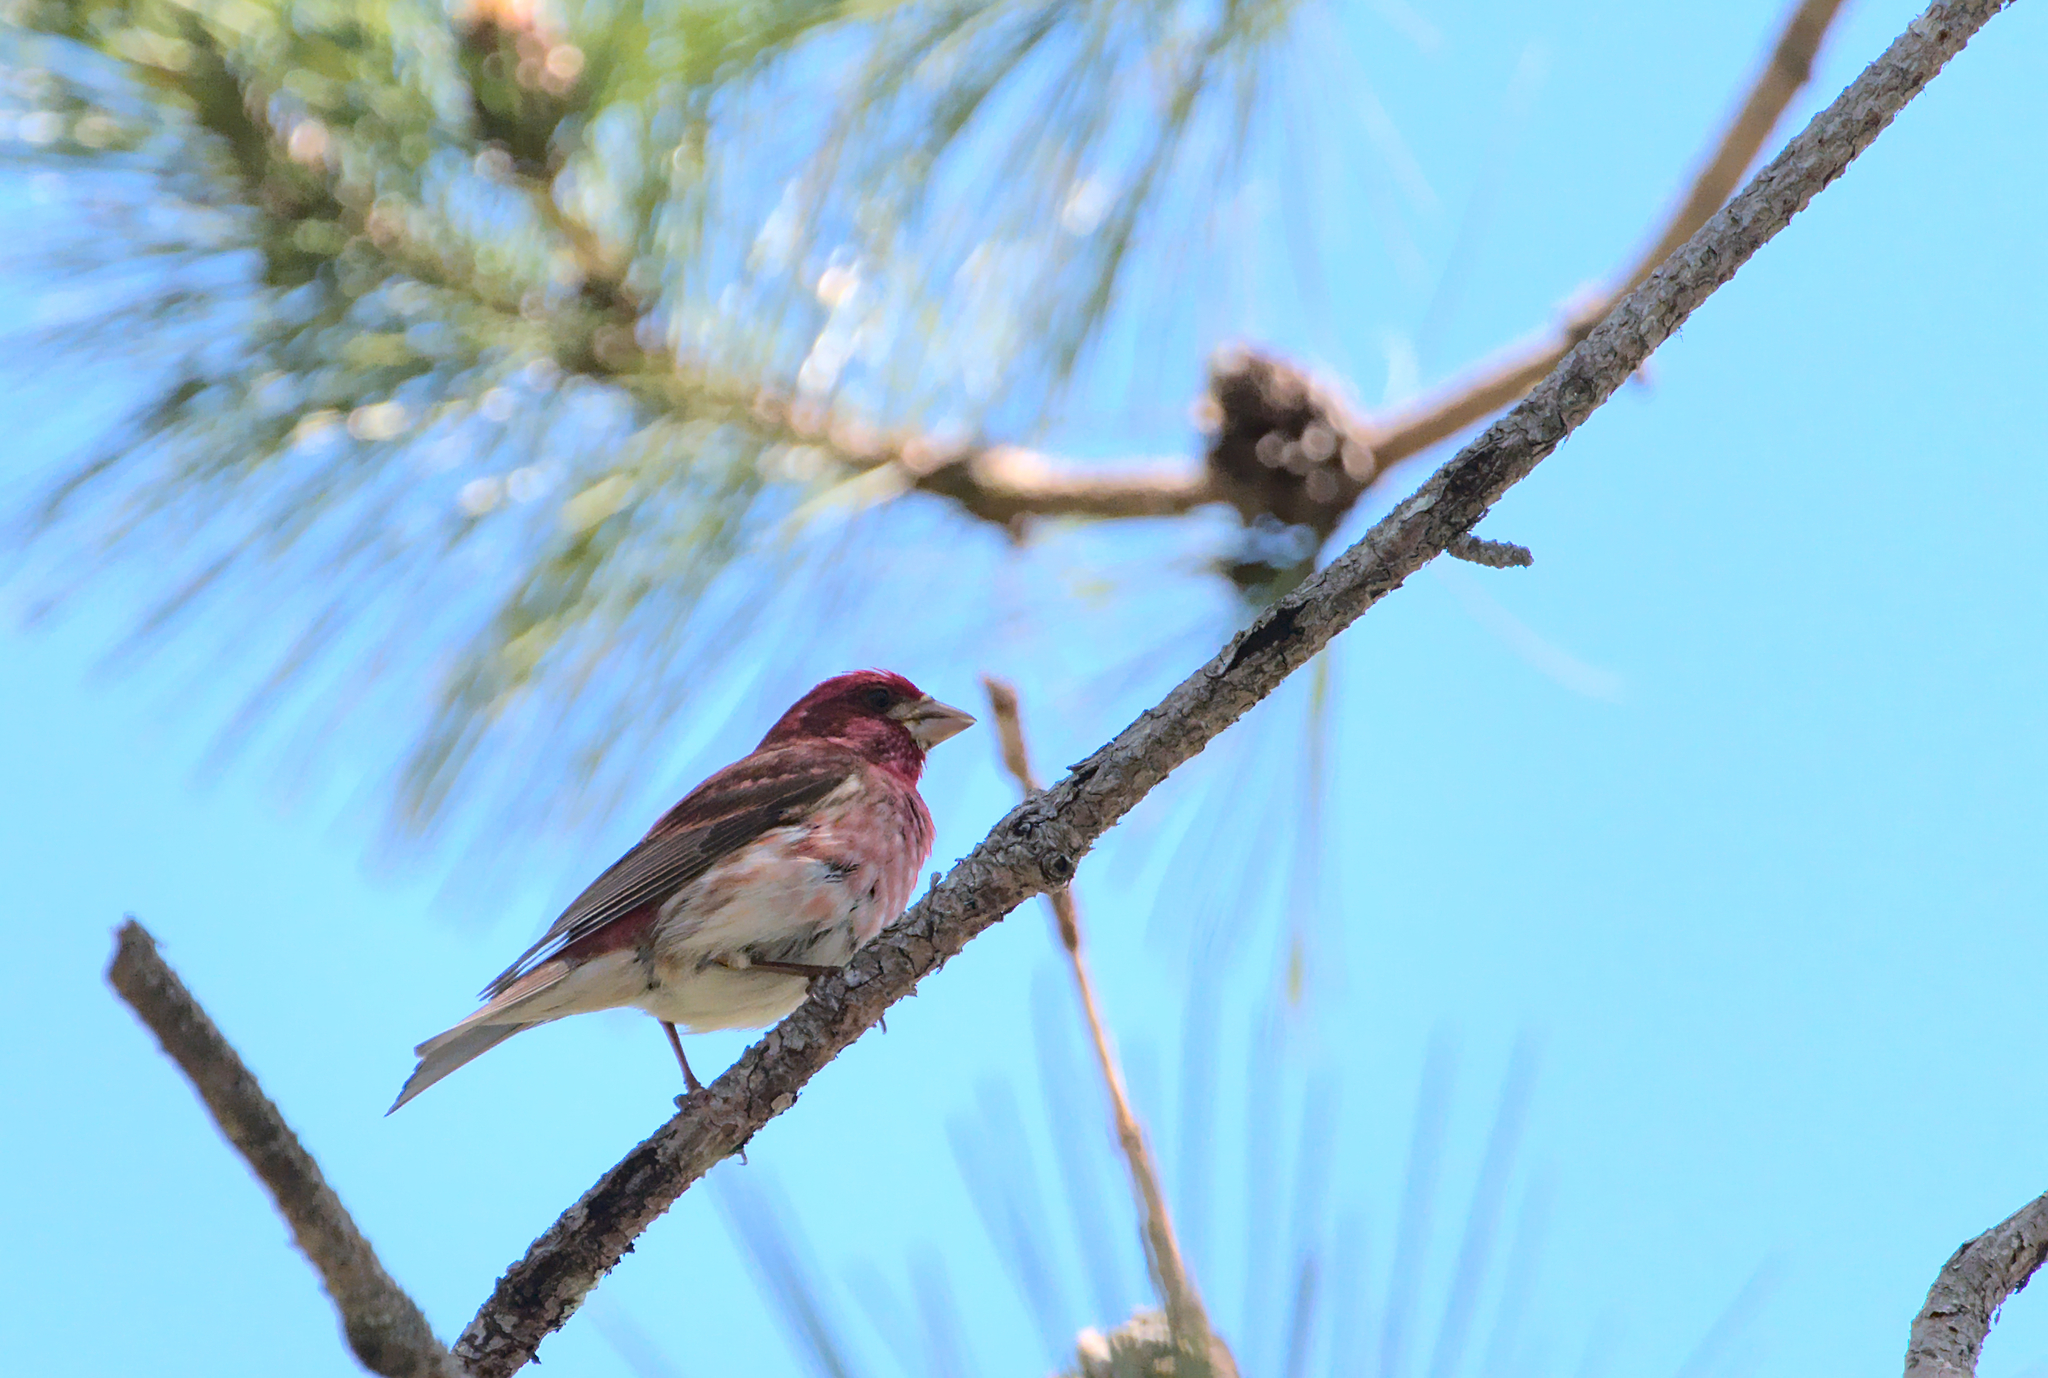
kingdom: Animalia
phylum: Chordata
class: Aves
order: Passeriformes
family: Fringillidae
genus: Haemorhous
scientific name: Haemorhous purpureus
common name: Purple finch
